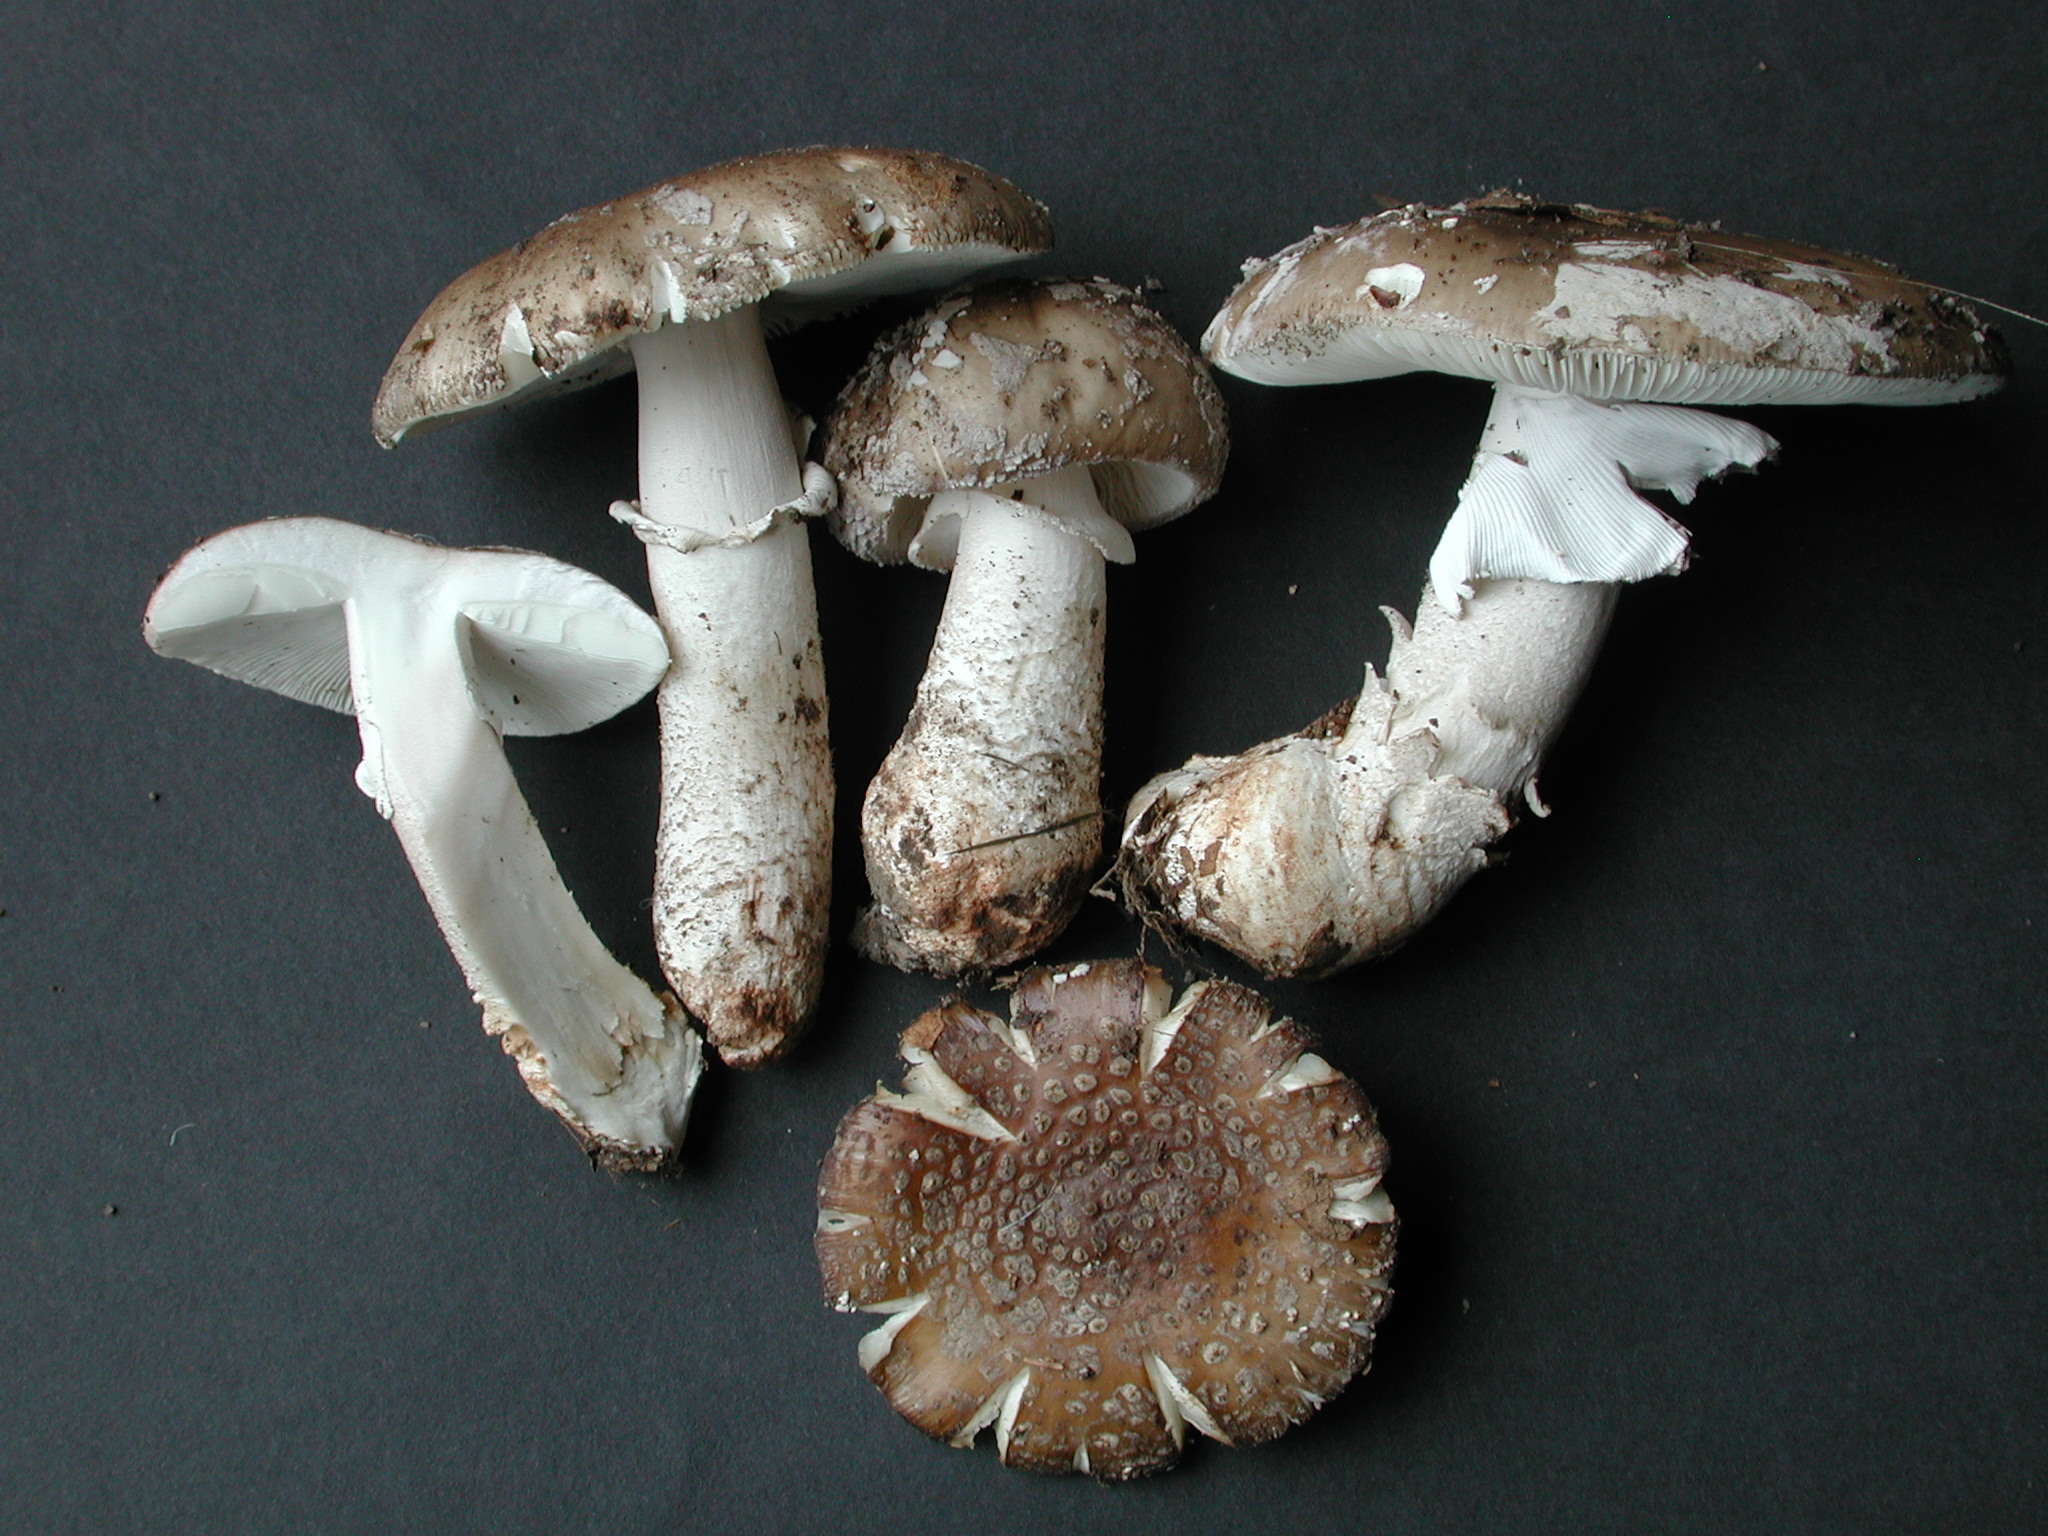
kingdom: Fungi
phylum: Basidiomycota
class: Agaricomycetes
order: Agaricales
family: Amanitaceae
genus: Amanita
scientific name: Amanita excelsa
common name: European false blusher
